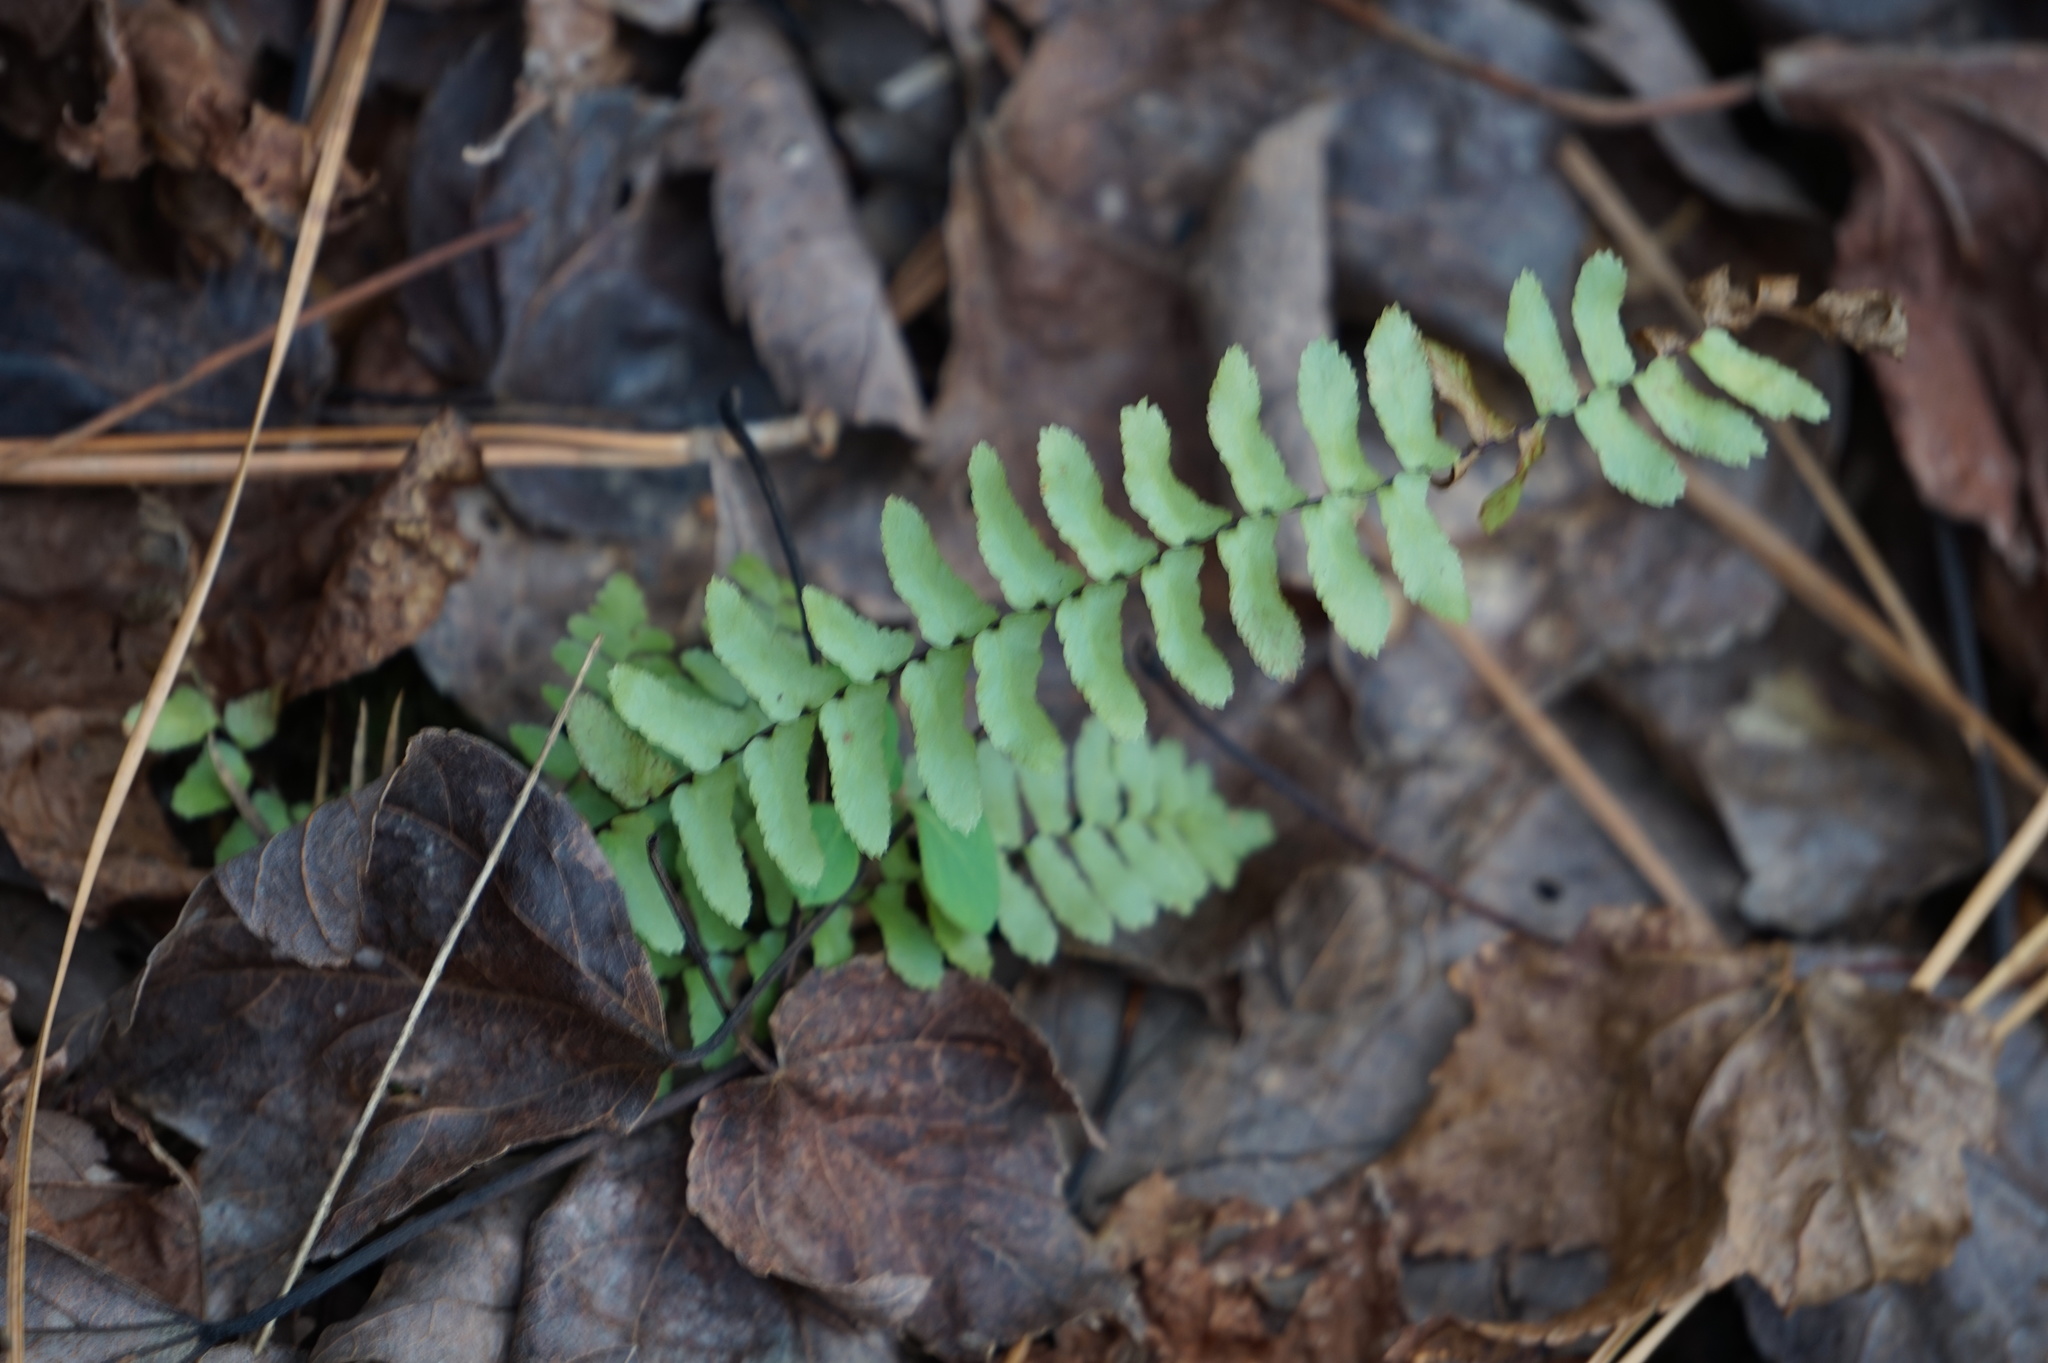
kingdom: Plantae
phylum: Tracheophyta
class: Polypodiopsida
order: Polypodiales
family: Aspleniaceae
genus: Asplenium
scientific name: Asplenium platyneuron
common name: Ebony spleenwort
